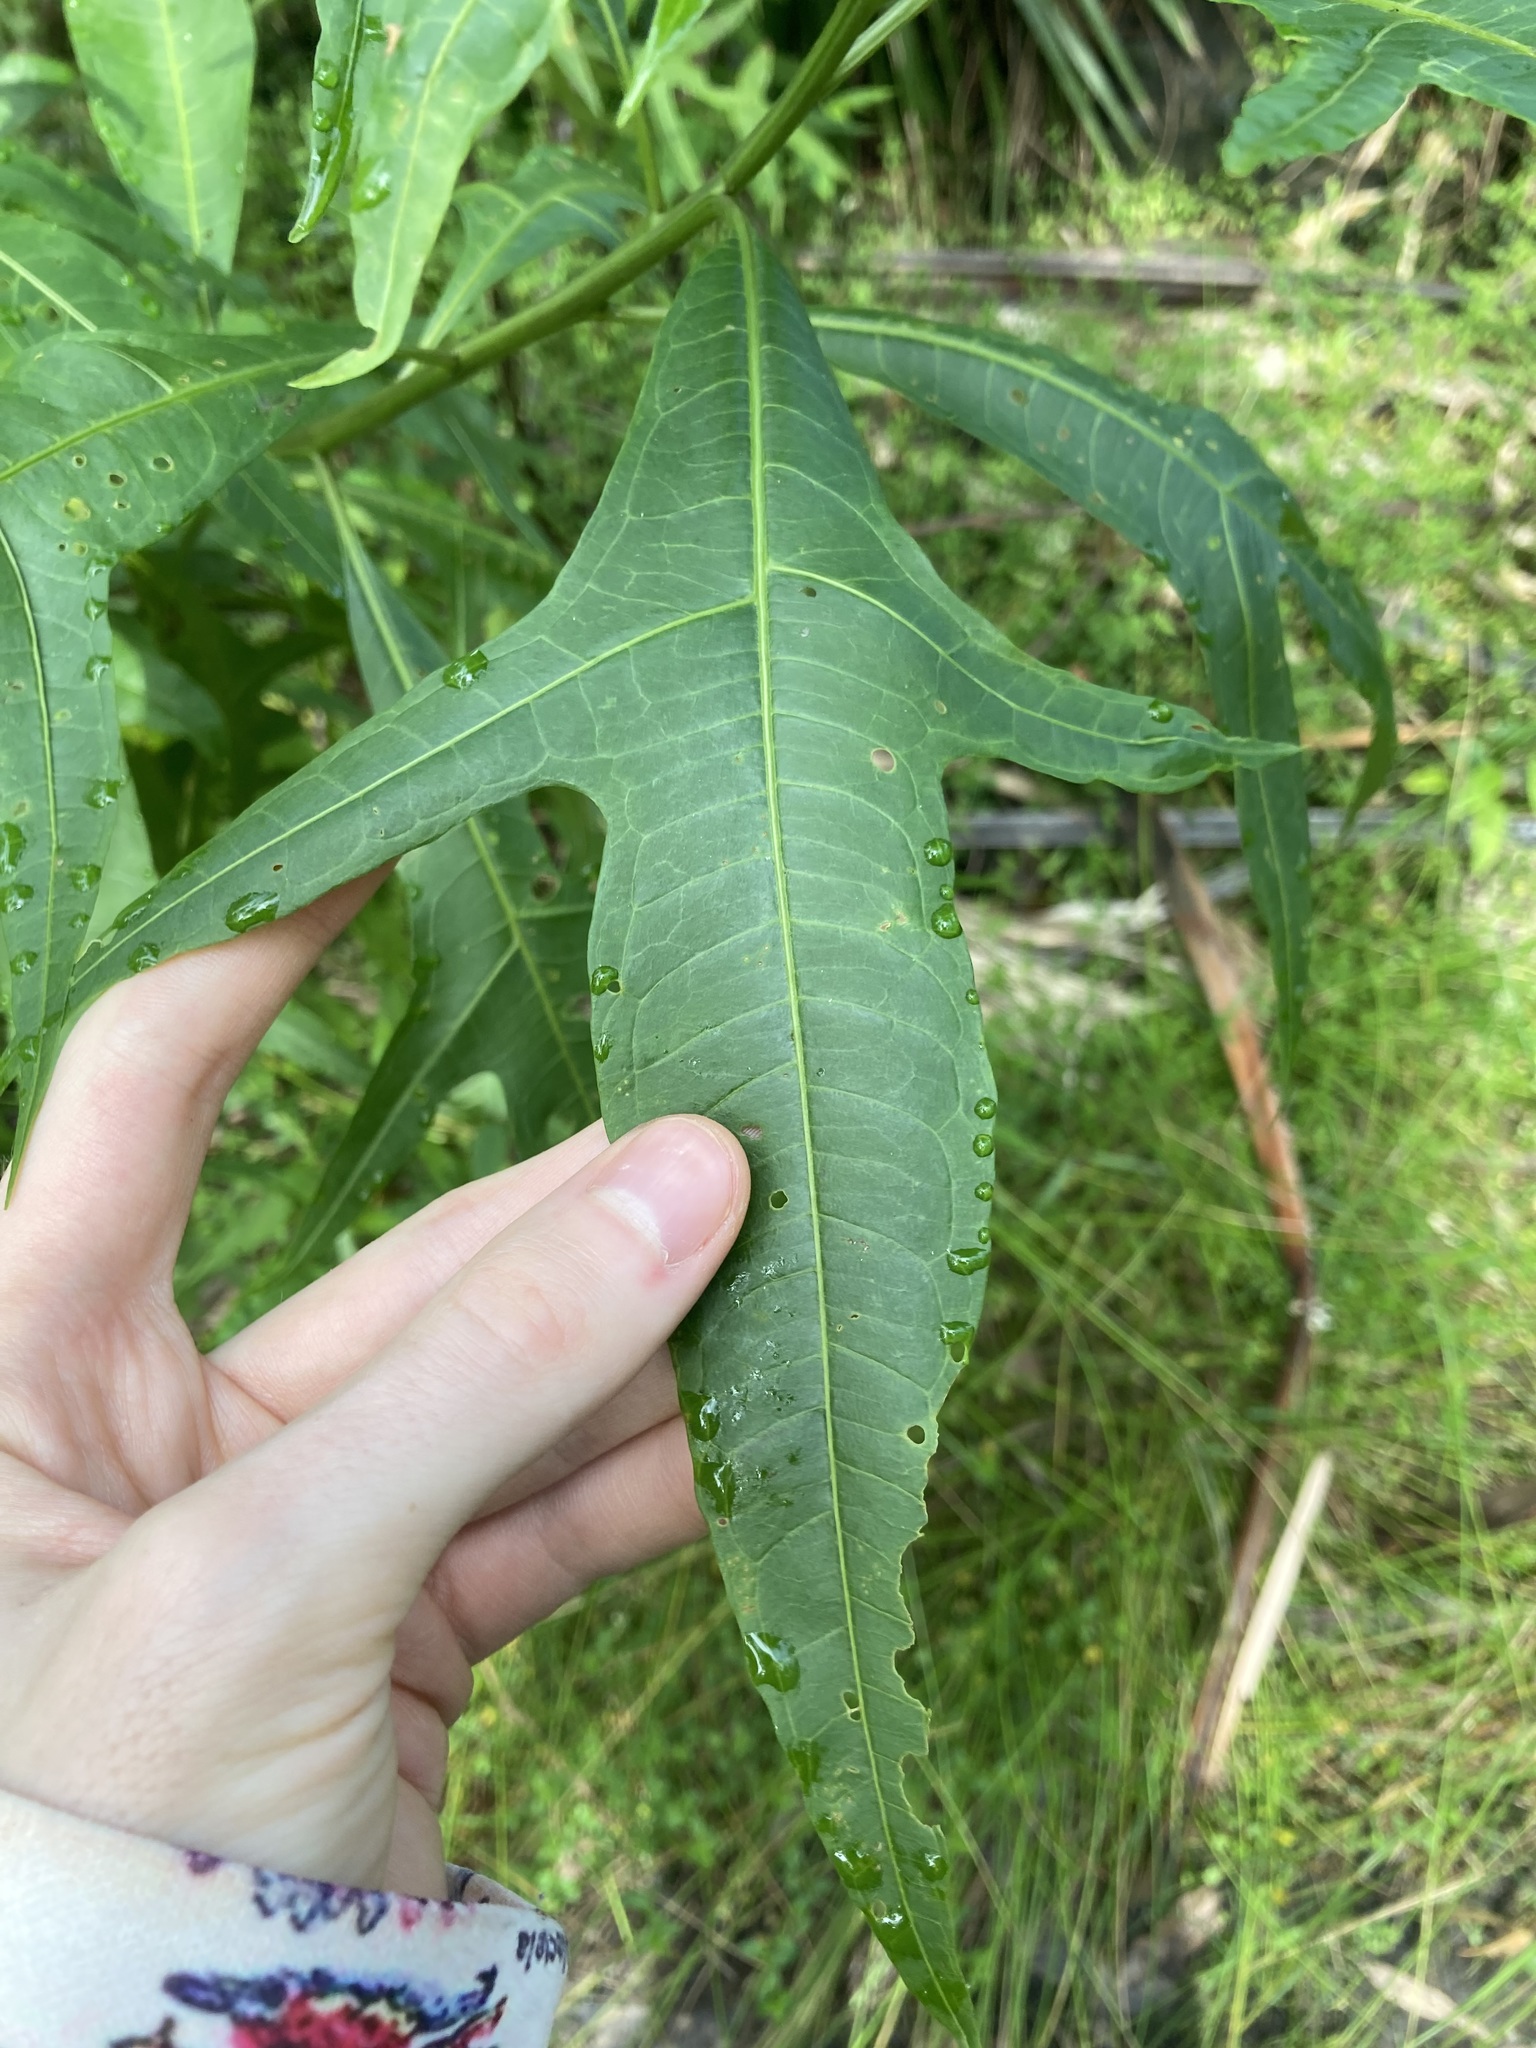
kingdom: Plantae
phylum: Tracheophyta
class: Magnoliopsida
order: Solanales
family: Solanaceae
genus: Solanum
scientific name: Solanum aviculare
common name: New zealand nightshade
